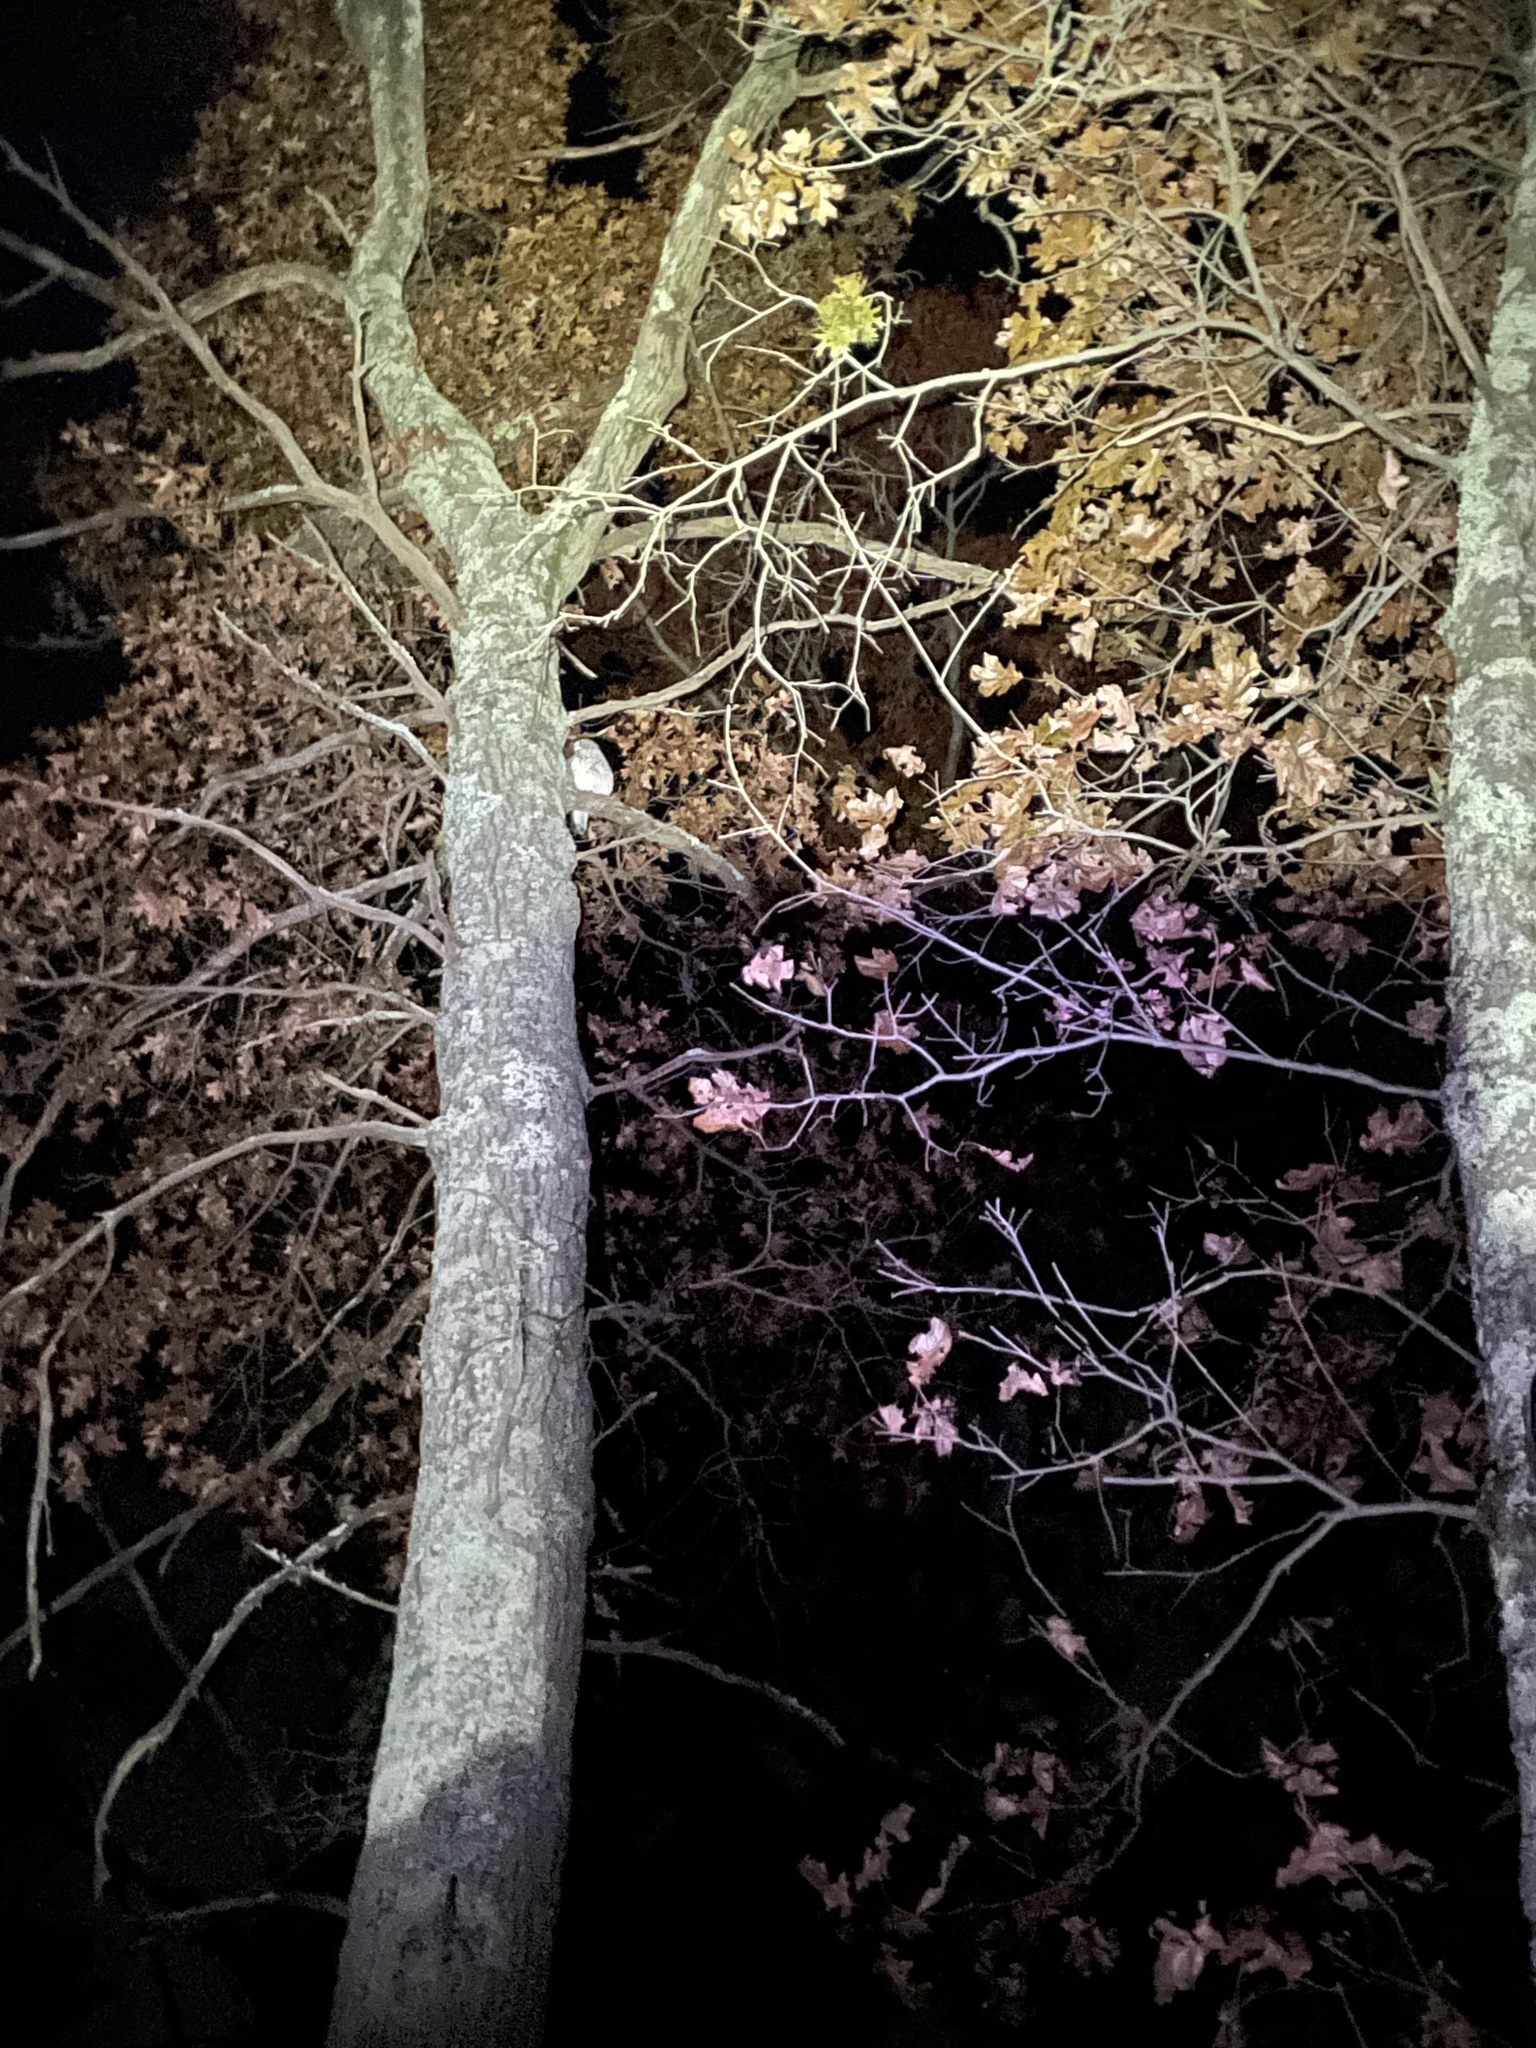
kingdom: Animalia
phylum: Chordata
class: Aves
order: Strigiformes
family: Strigidae
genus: Strix
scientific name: Strix varia
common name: Barred owl
